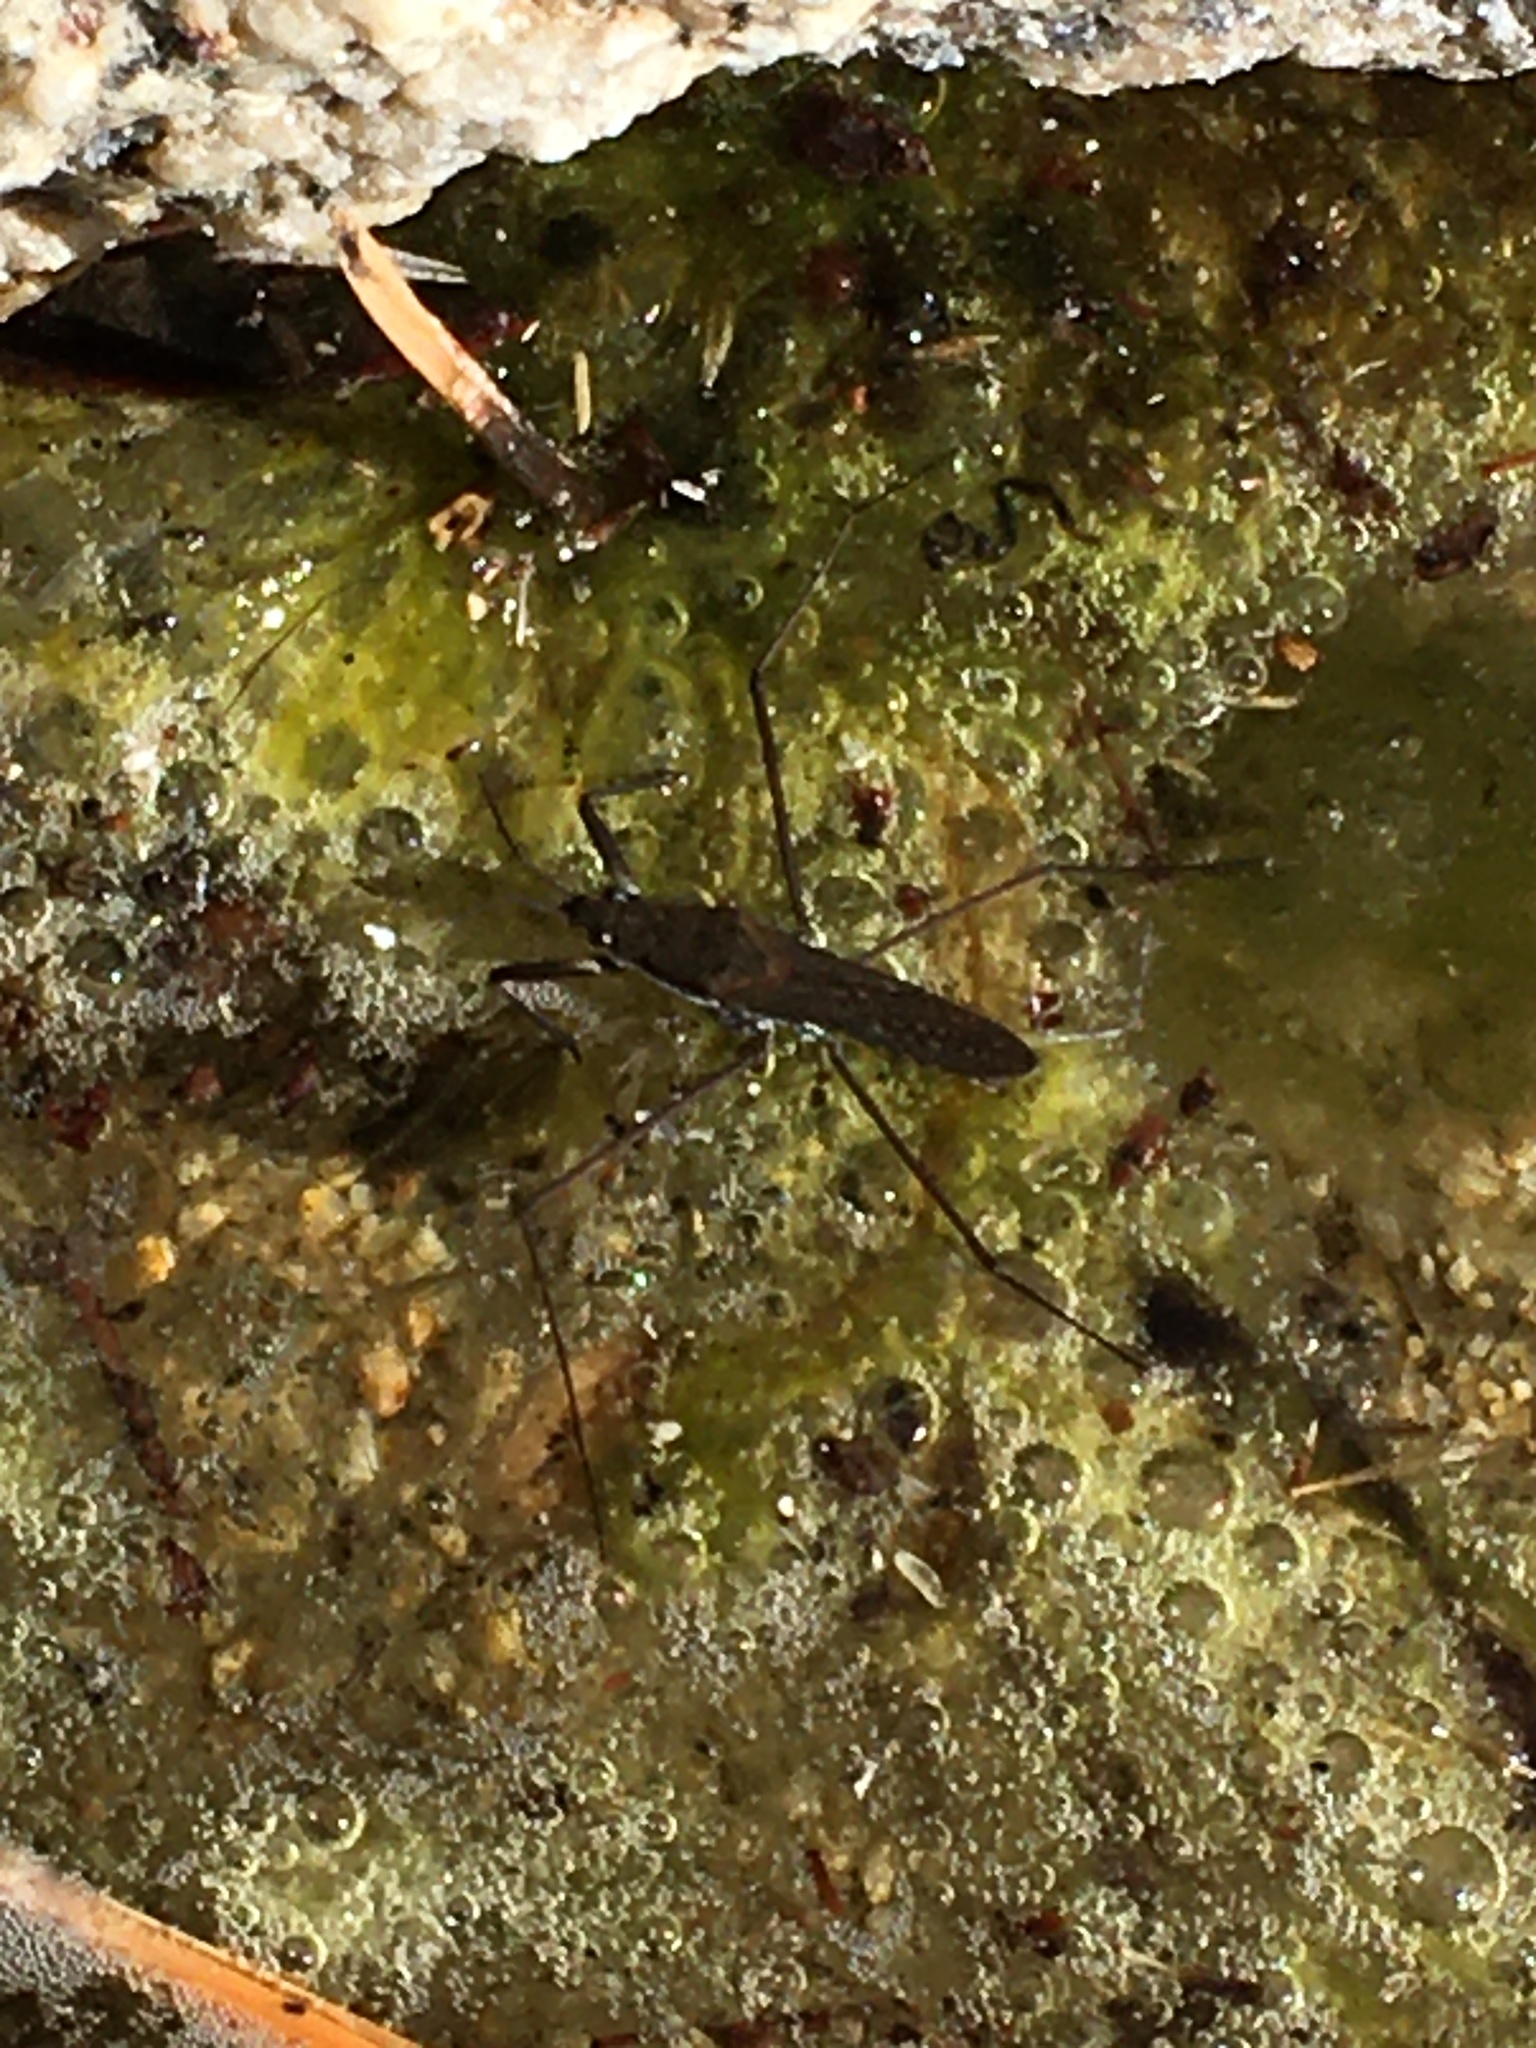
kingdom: Animalia
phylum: Arthropoda
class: Insecta
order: Hemiptera
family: Gerridae
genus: Aquarius
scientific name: Aquarius remigis
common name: Common water strider
